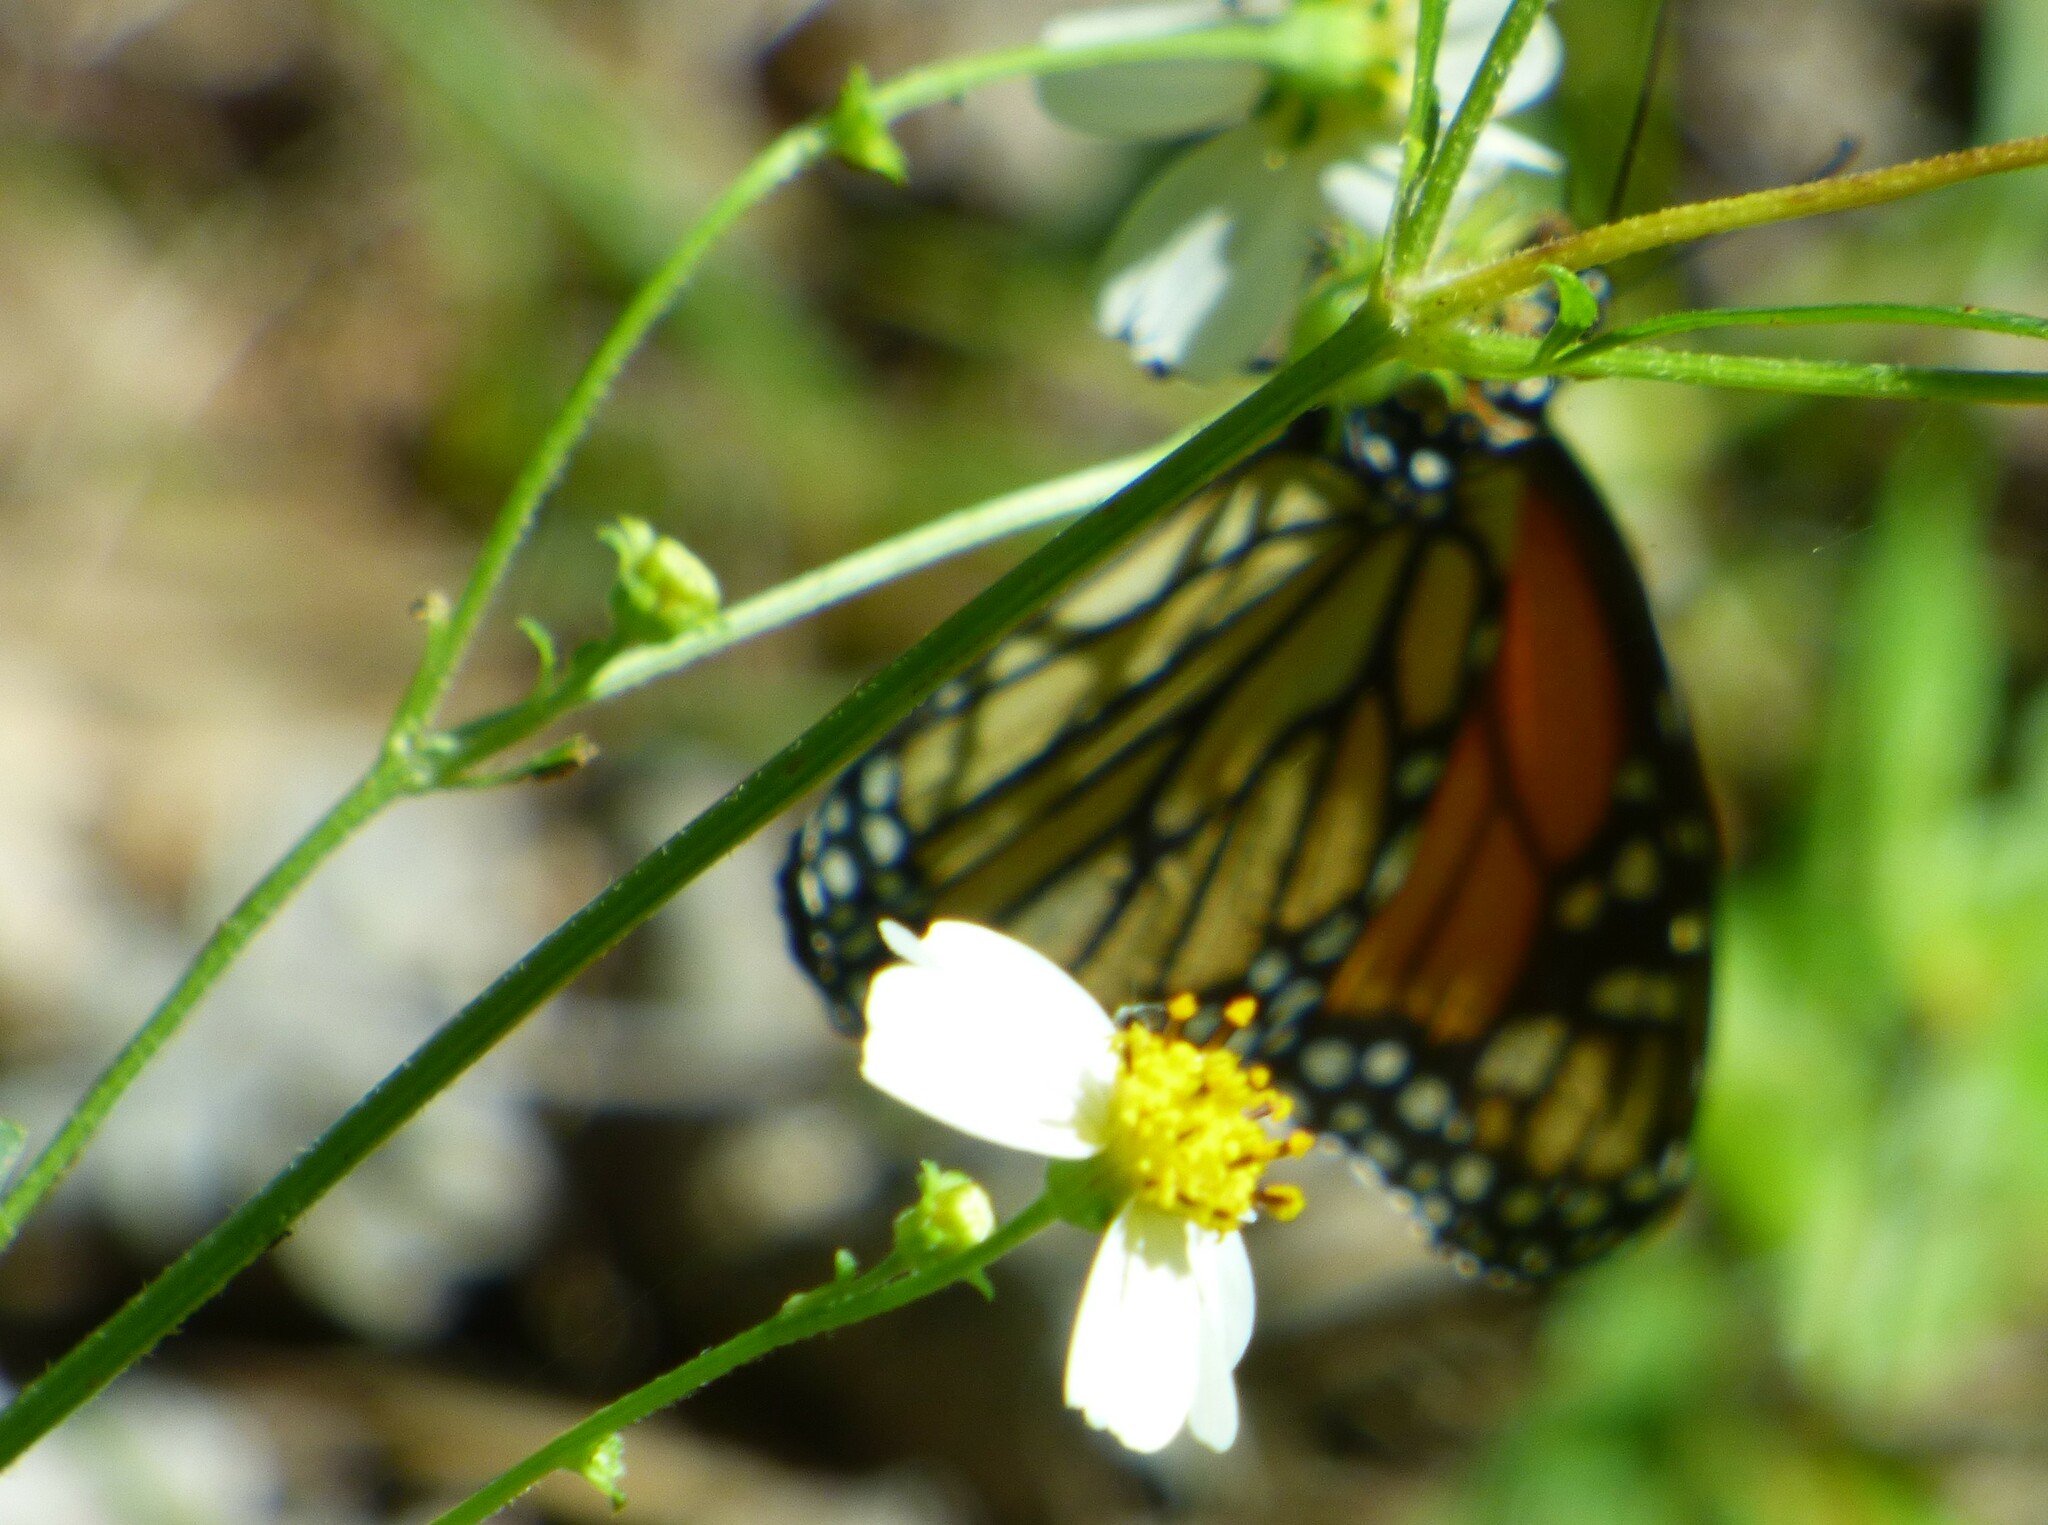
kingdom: Animalia
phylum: Arthropoda
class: Insecta
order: Lepidoptera
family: Nymphalidae
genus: Danaus
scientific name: Danaus plexippus
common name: Monarch
